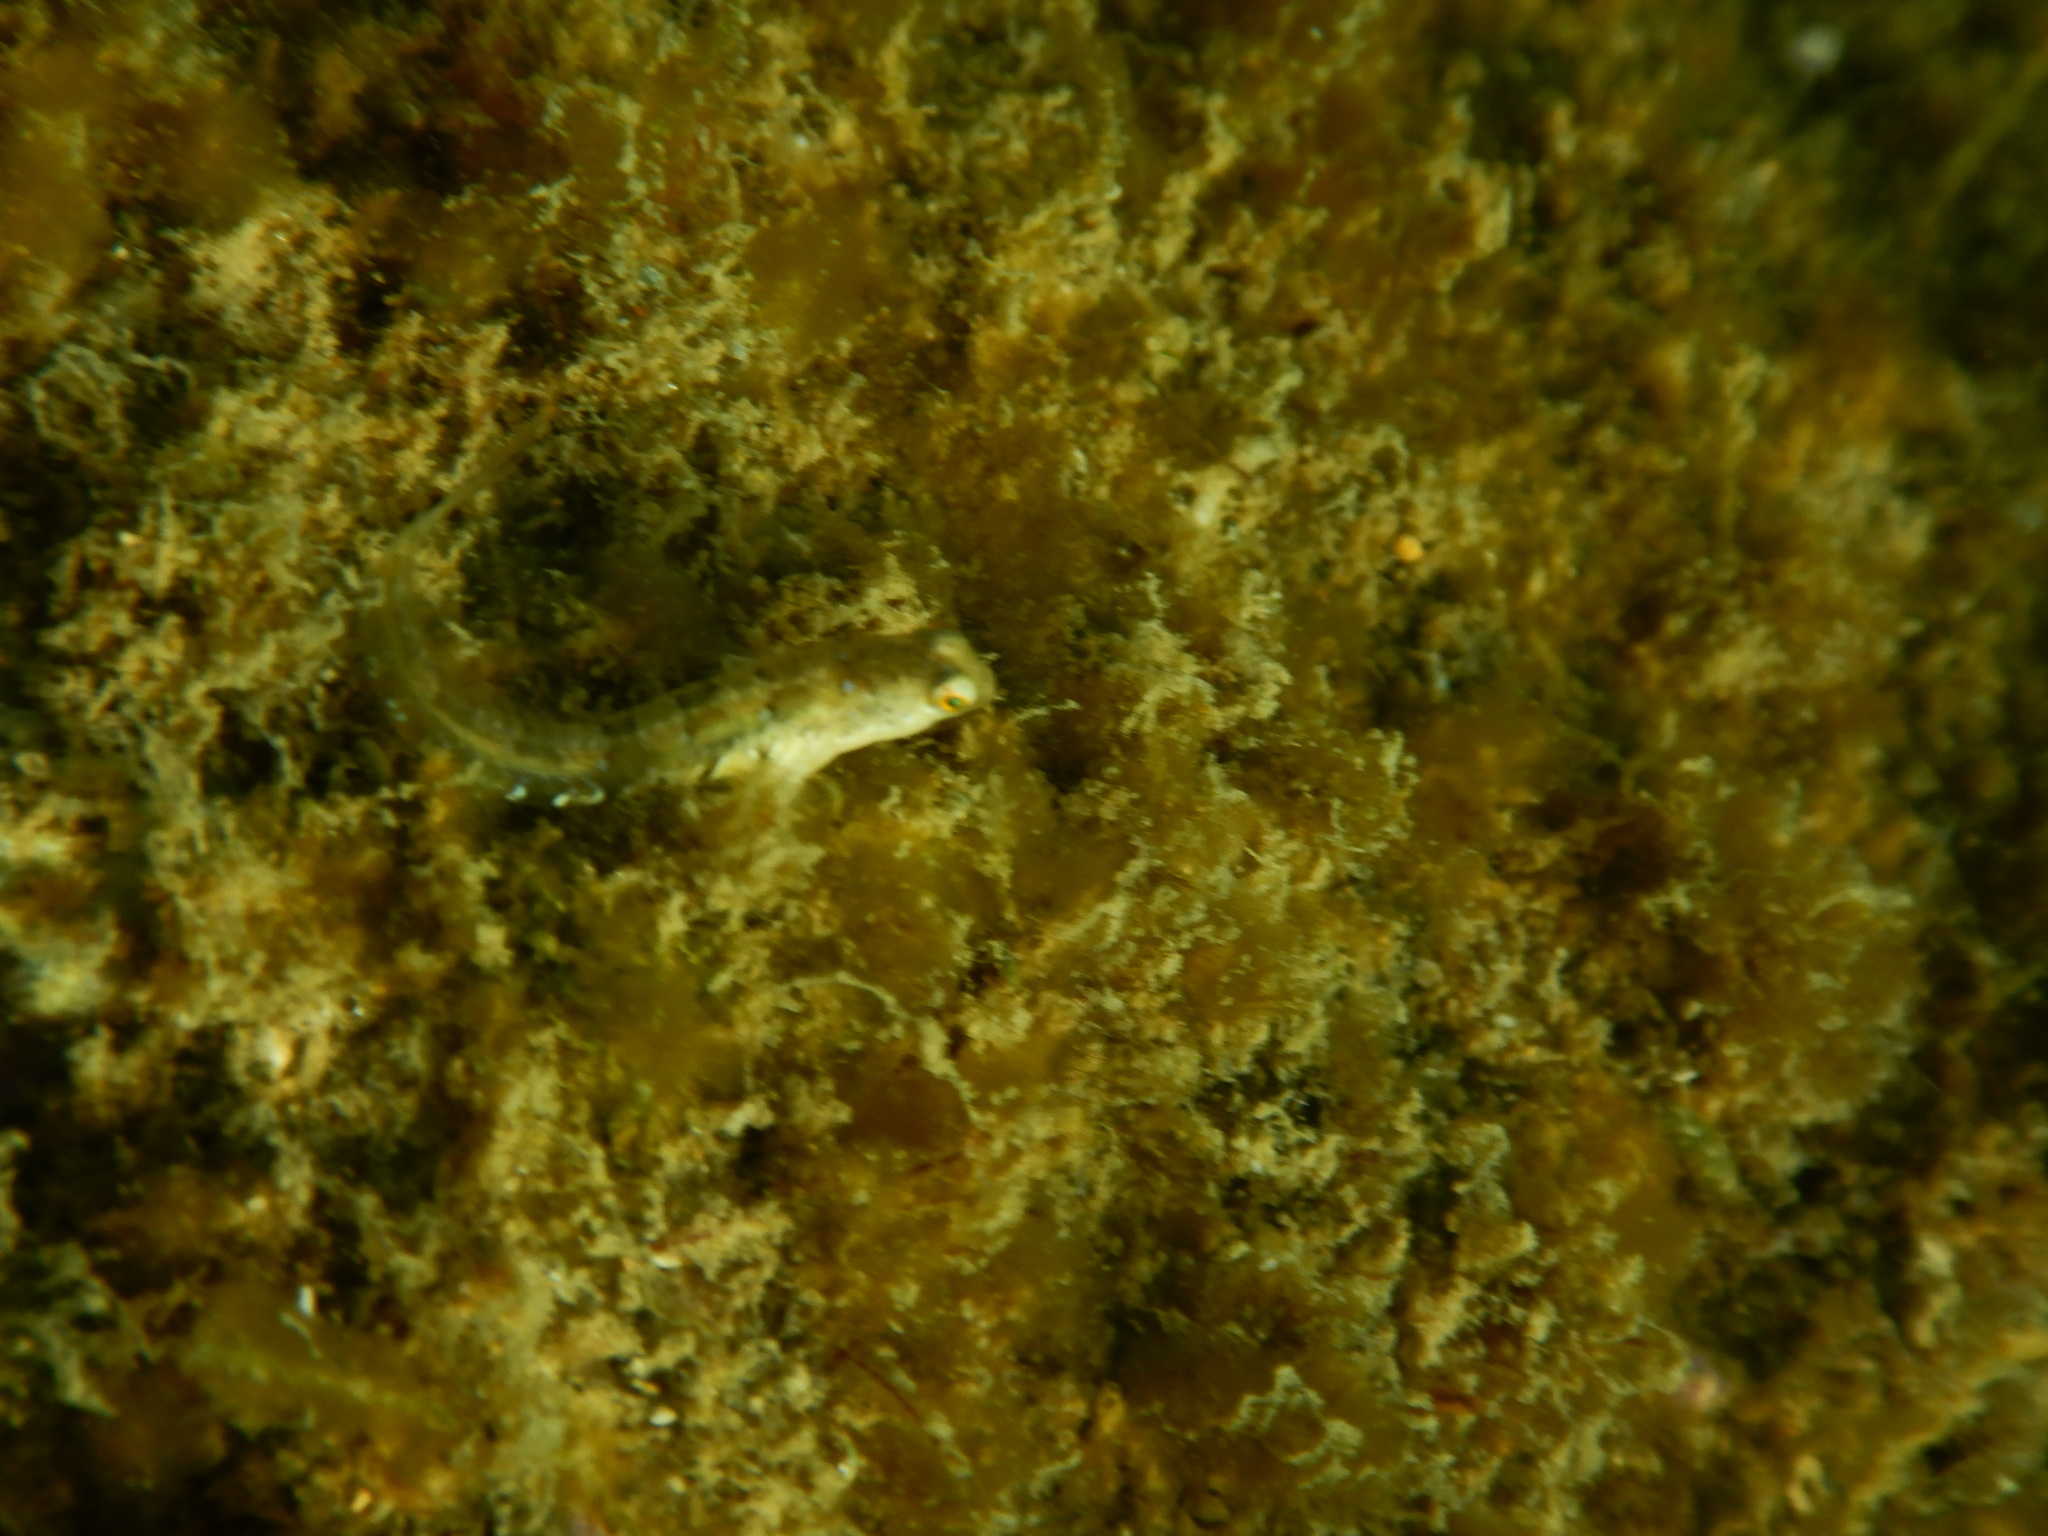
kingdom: Animalia
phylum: Chordata
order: Perciformes
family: Blenniidae
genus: Microlipophrys
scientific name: Microlipophrys dalmatinus
